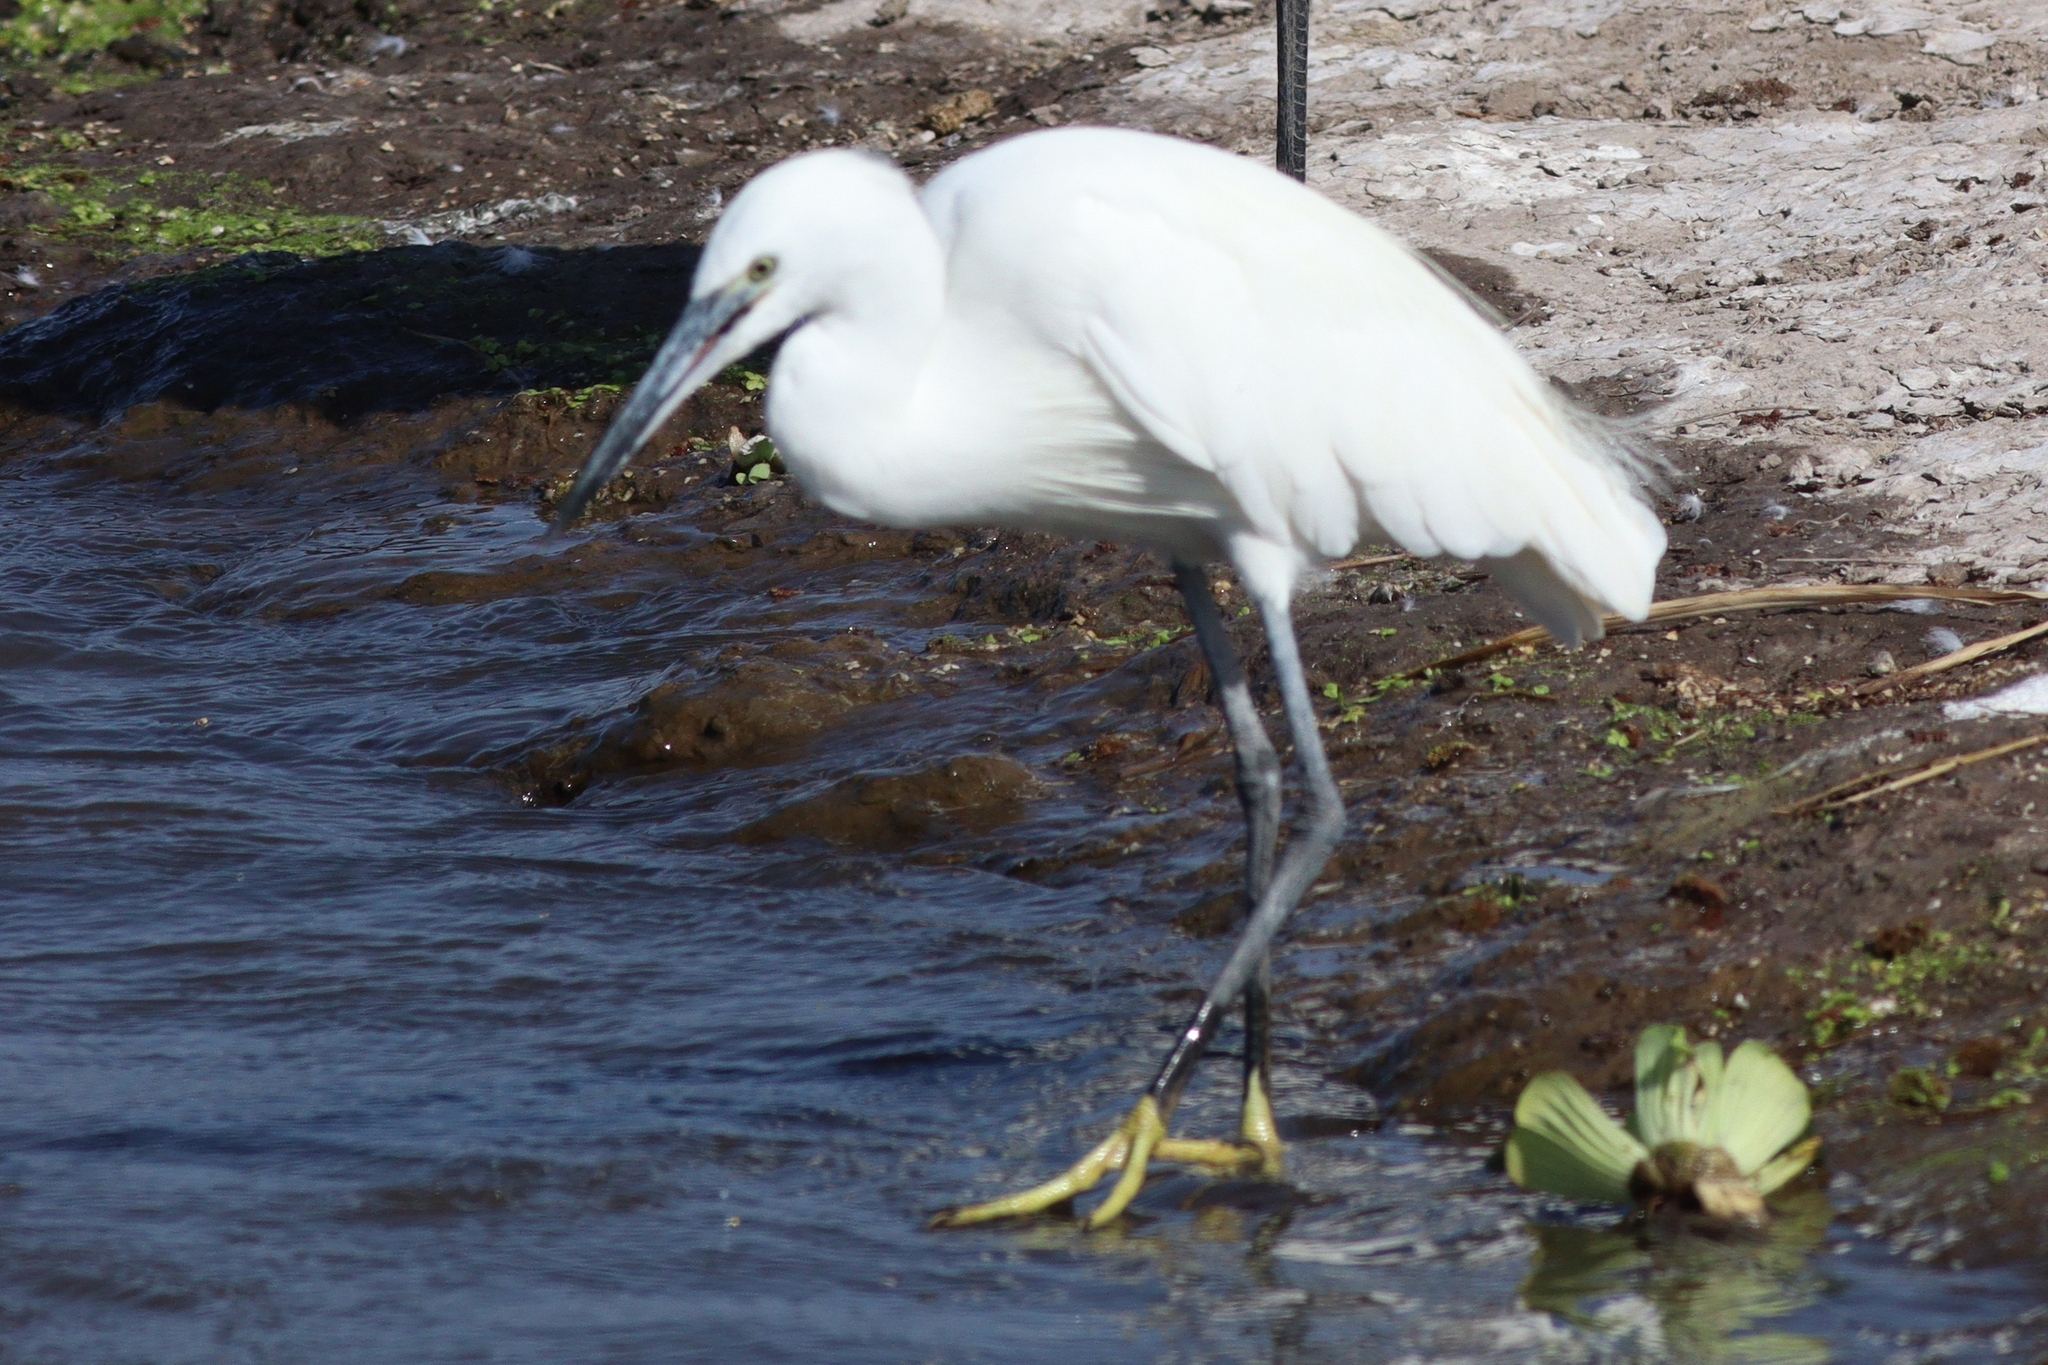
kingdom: Animalia
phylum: Chordata
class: Aves
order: Pelecaniformes
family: Ardeidae
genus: Egretta
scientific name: Egretta garzetta
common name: Little egret
